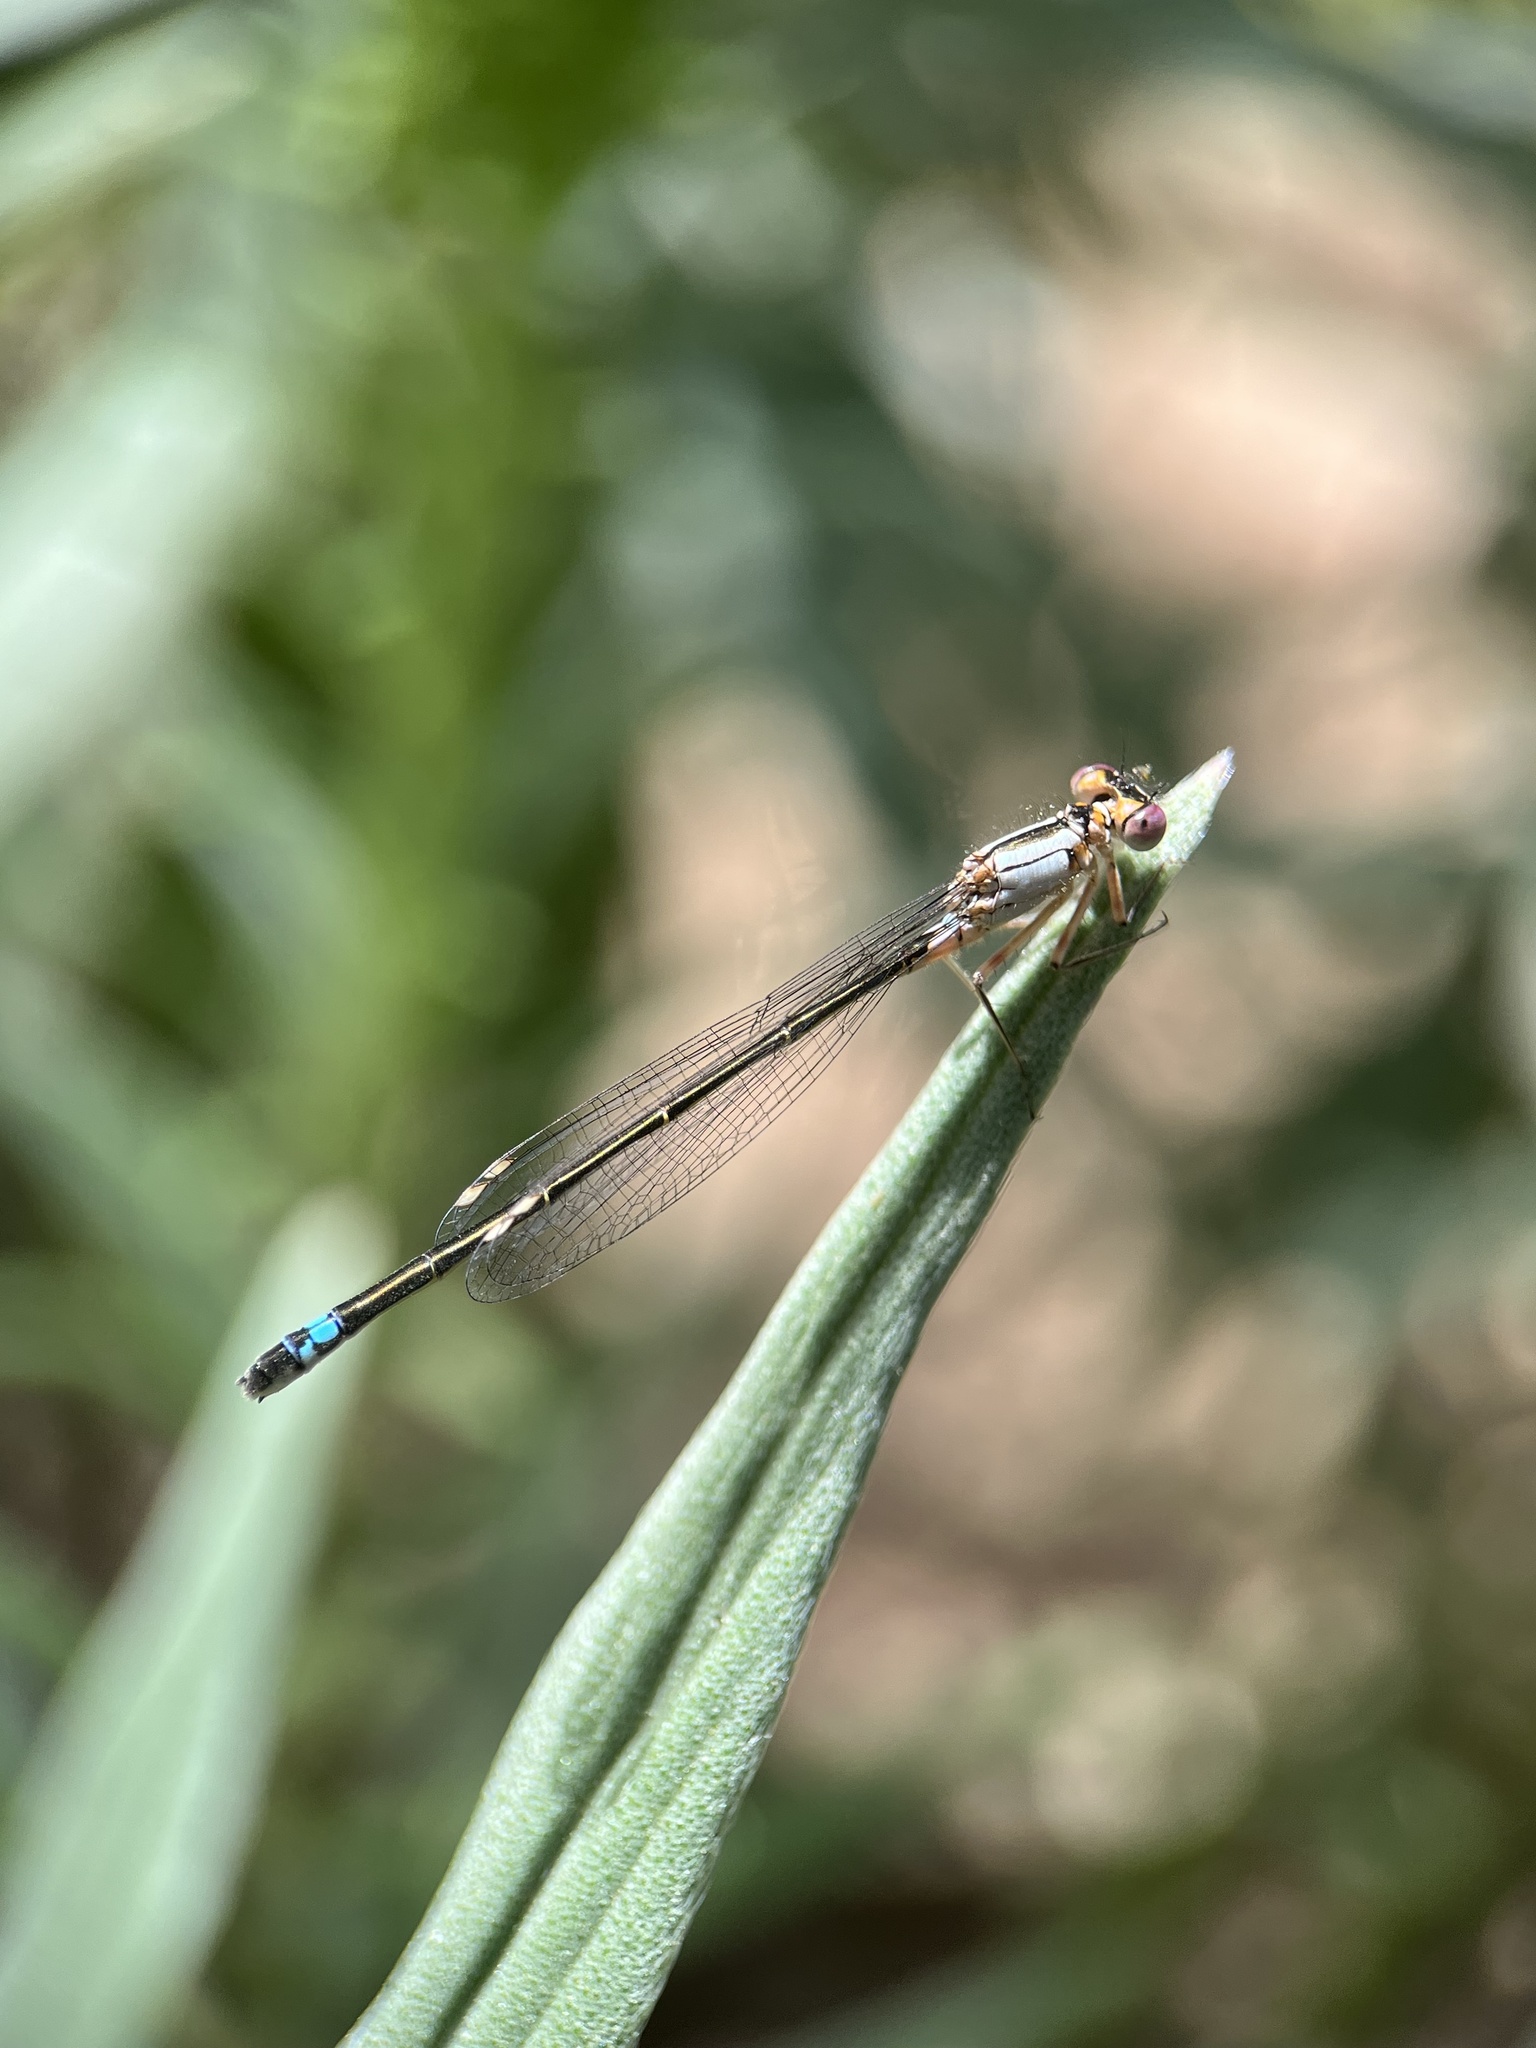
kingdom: Animalia
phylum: Arthropoda
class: Insecta
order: Odonata
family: Coenagrionidae
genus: Ischnura
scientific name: Ischnura cervula
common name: Pacific forktail
